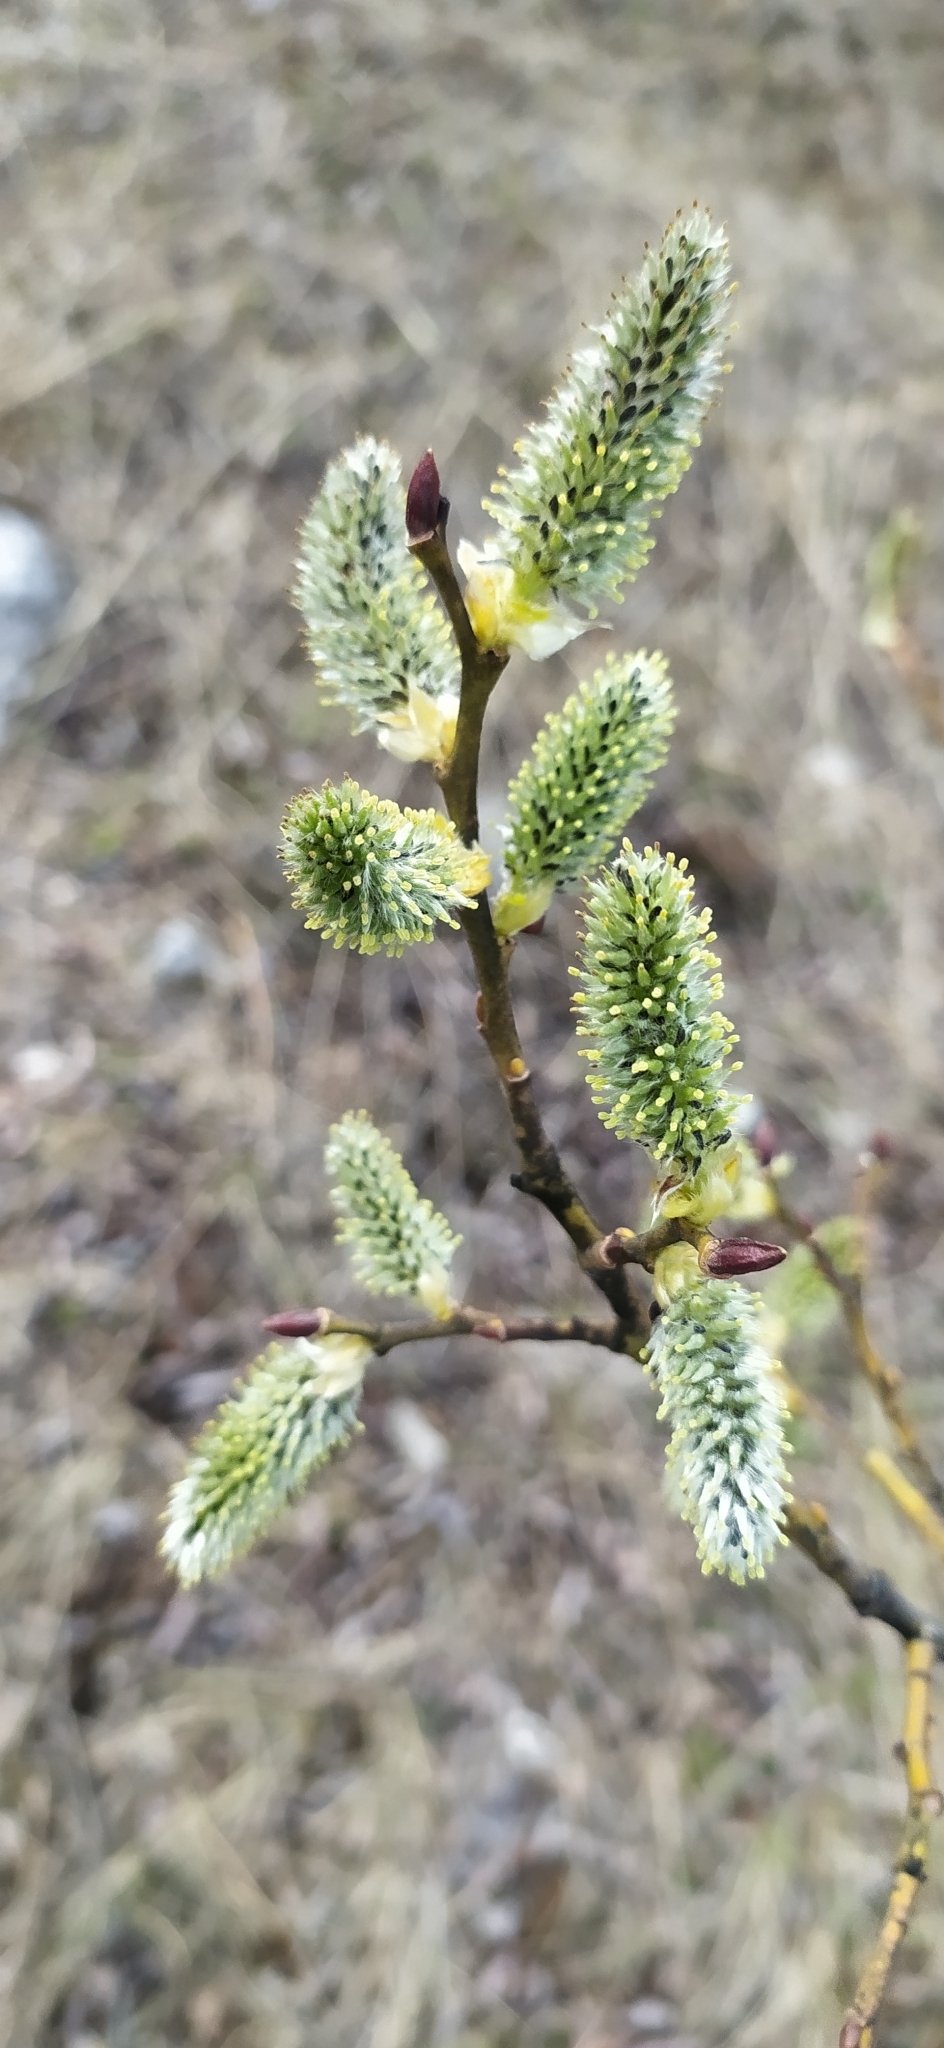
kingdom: Plantae
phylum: Tracheophyta
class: Magnoliopsida
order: Malpighiales
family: Salicaceae
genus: Salix
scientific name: Salix caprea
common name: Goat willow
